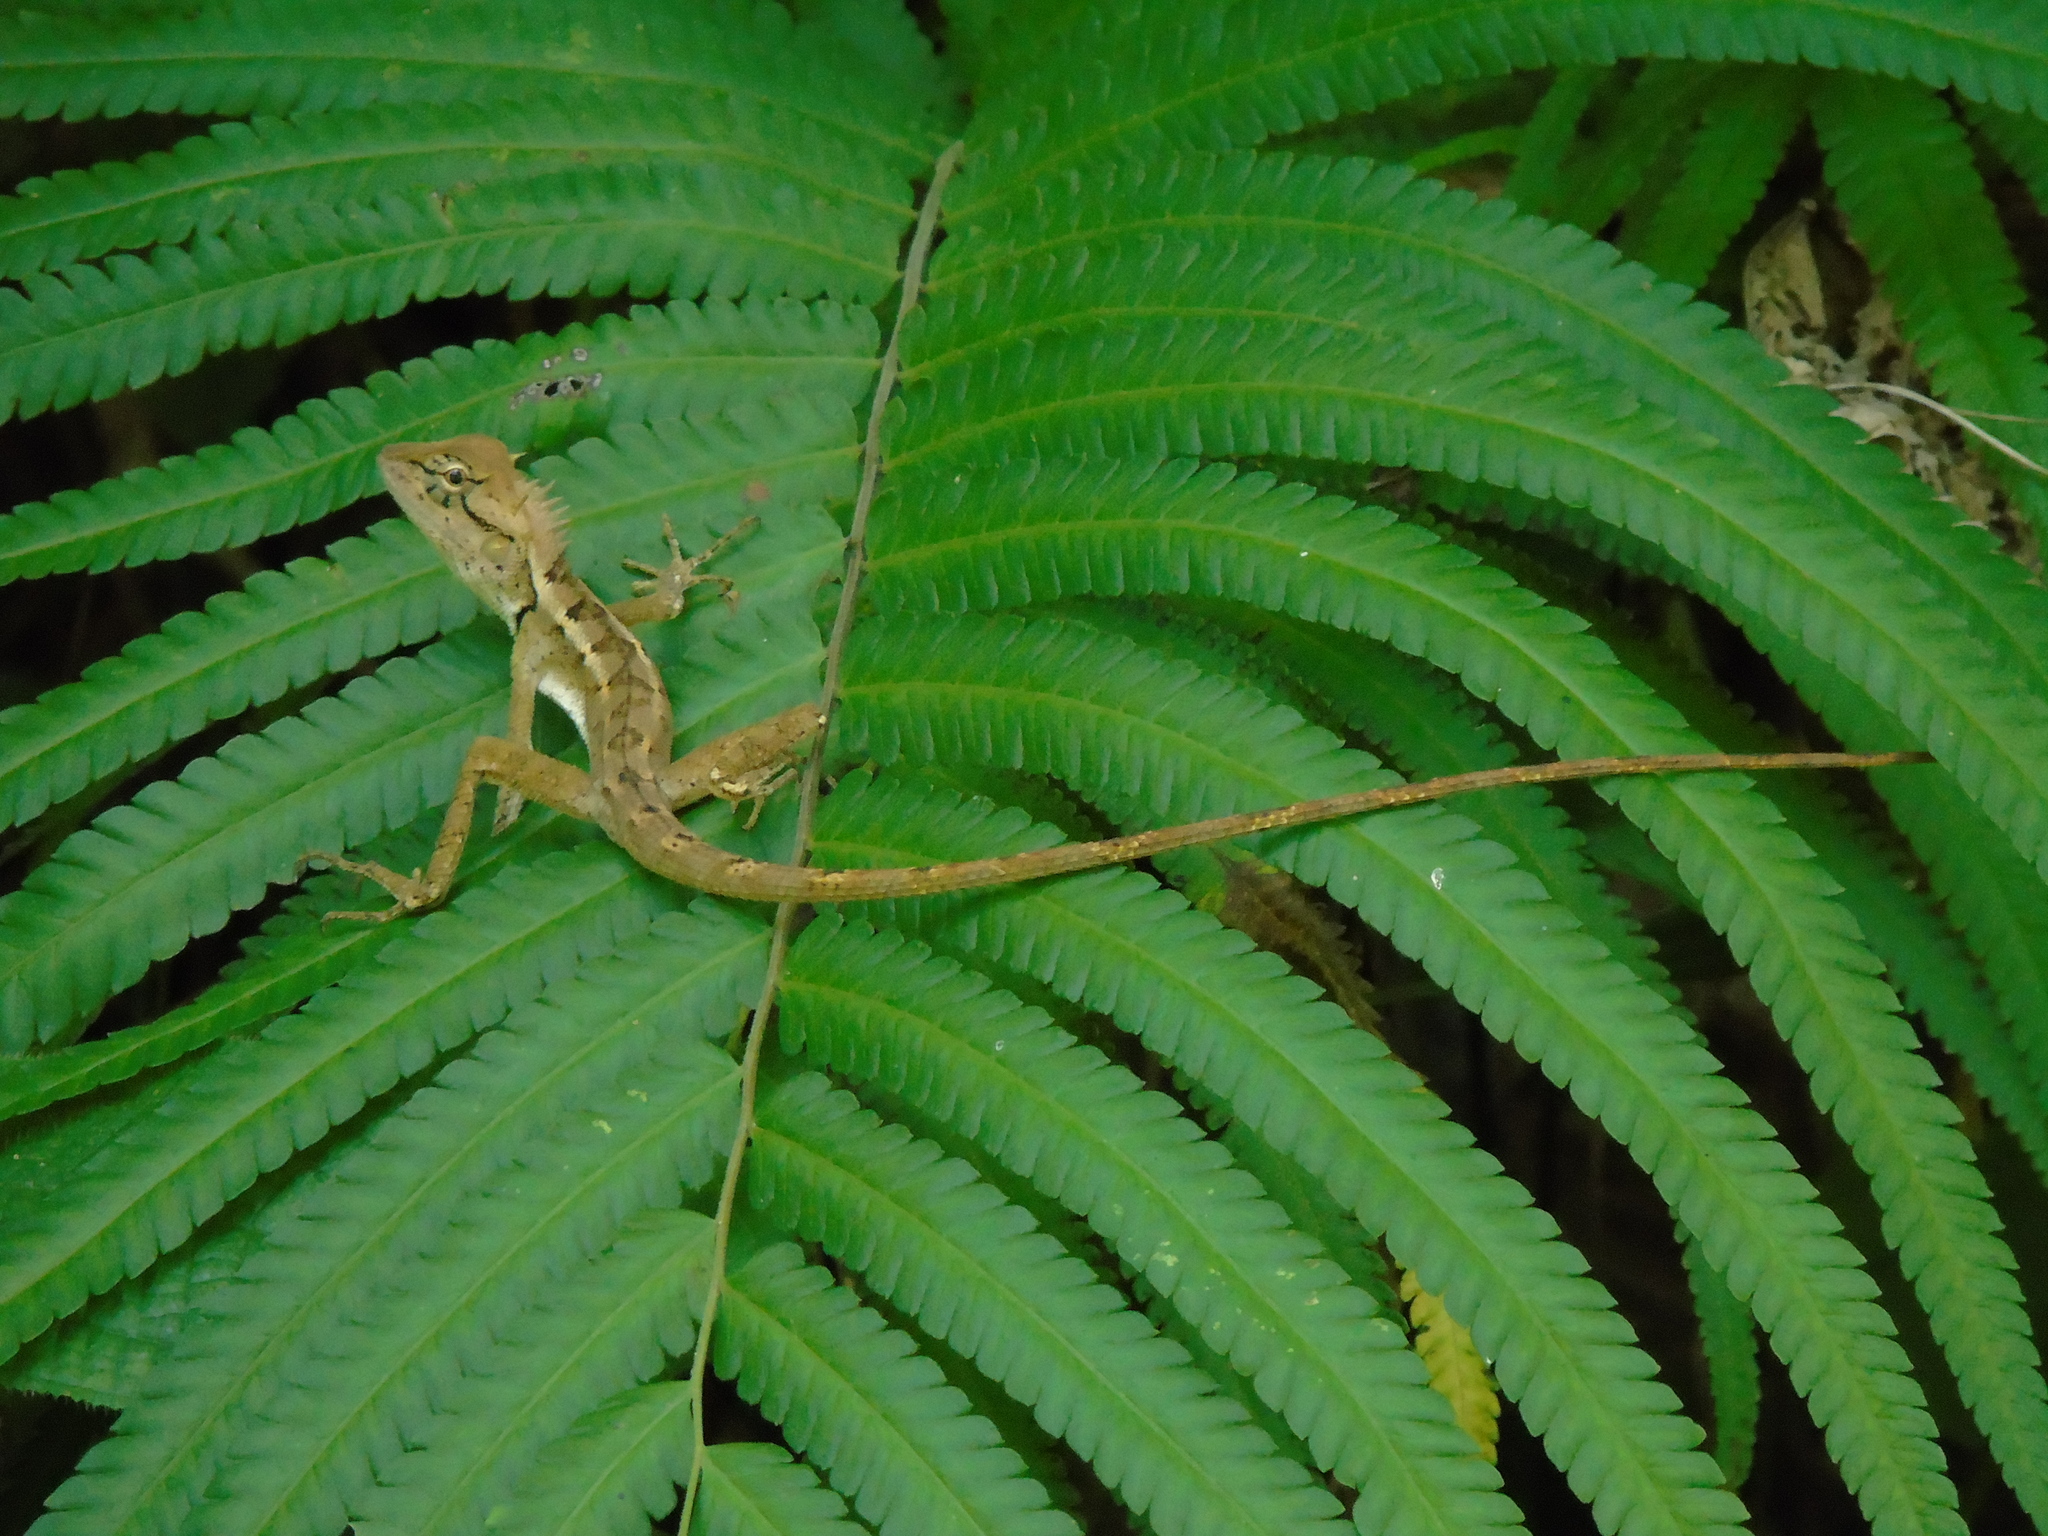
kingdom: Animalia
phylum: Chordata
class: Squamata
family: Agamidae
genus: Calotes
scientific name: Calotes emma
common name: Thailand bloodsucker
